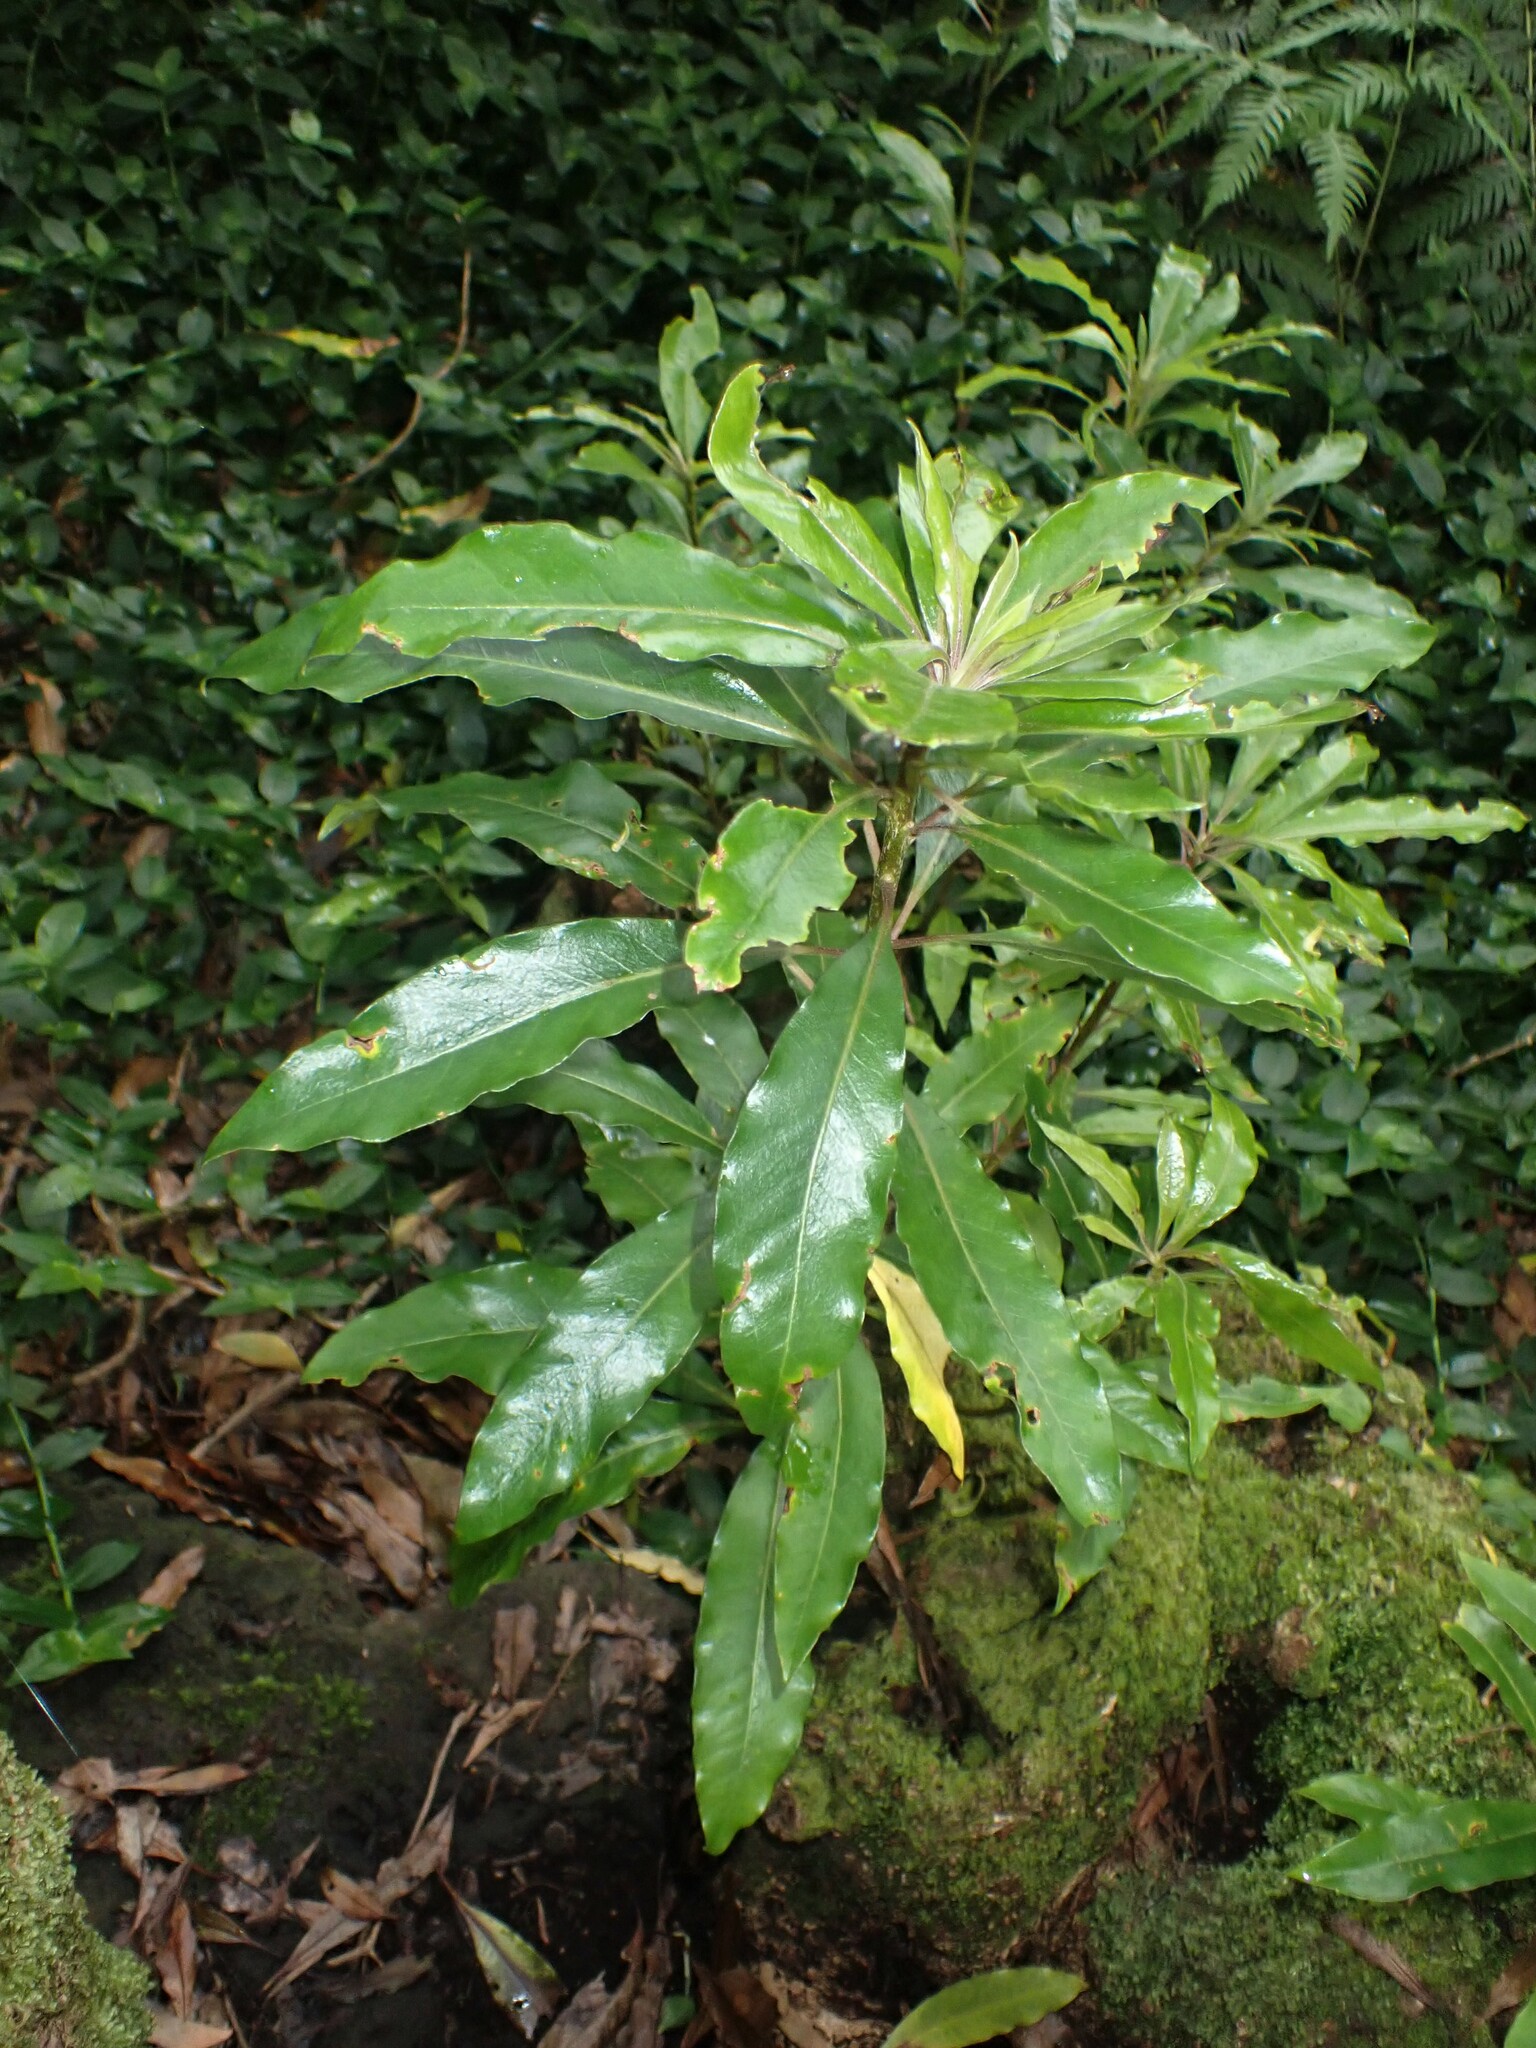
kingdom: Plantae
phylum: Tracheophyta
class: Magnoliopsida
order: Apiales
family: Pittosporaceae
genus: Pittosporum
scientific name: Pittosporum undulatum
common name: Australian cheesewood
